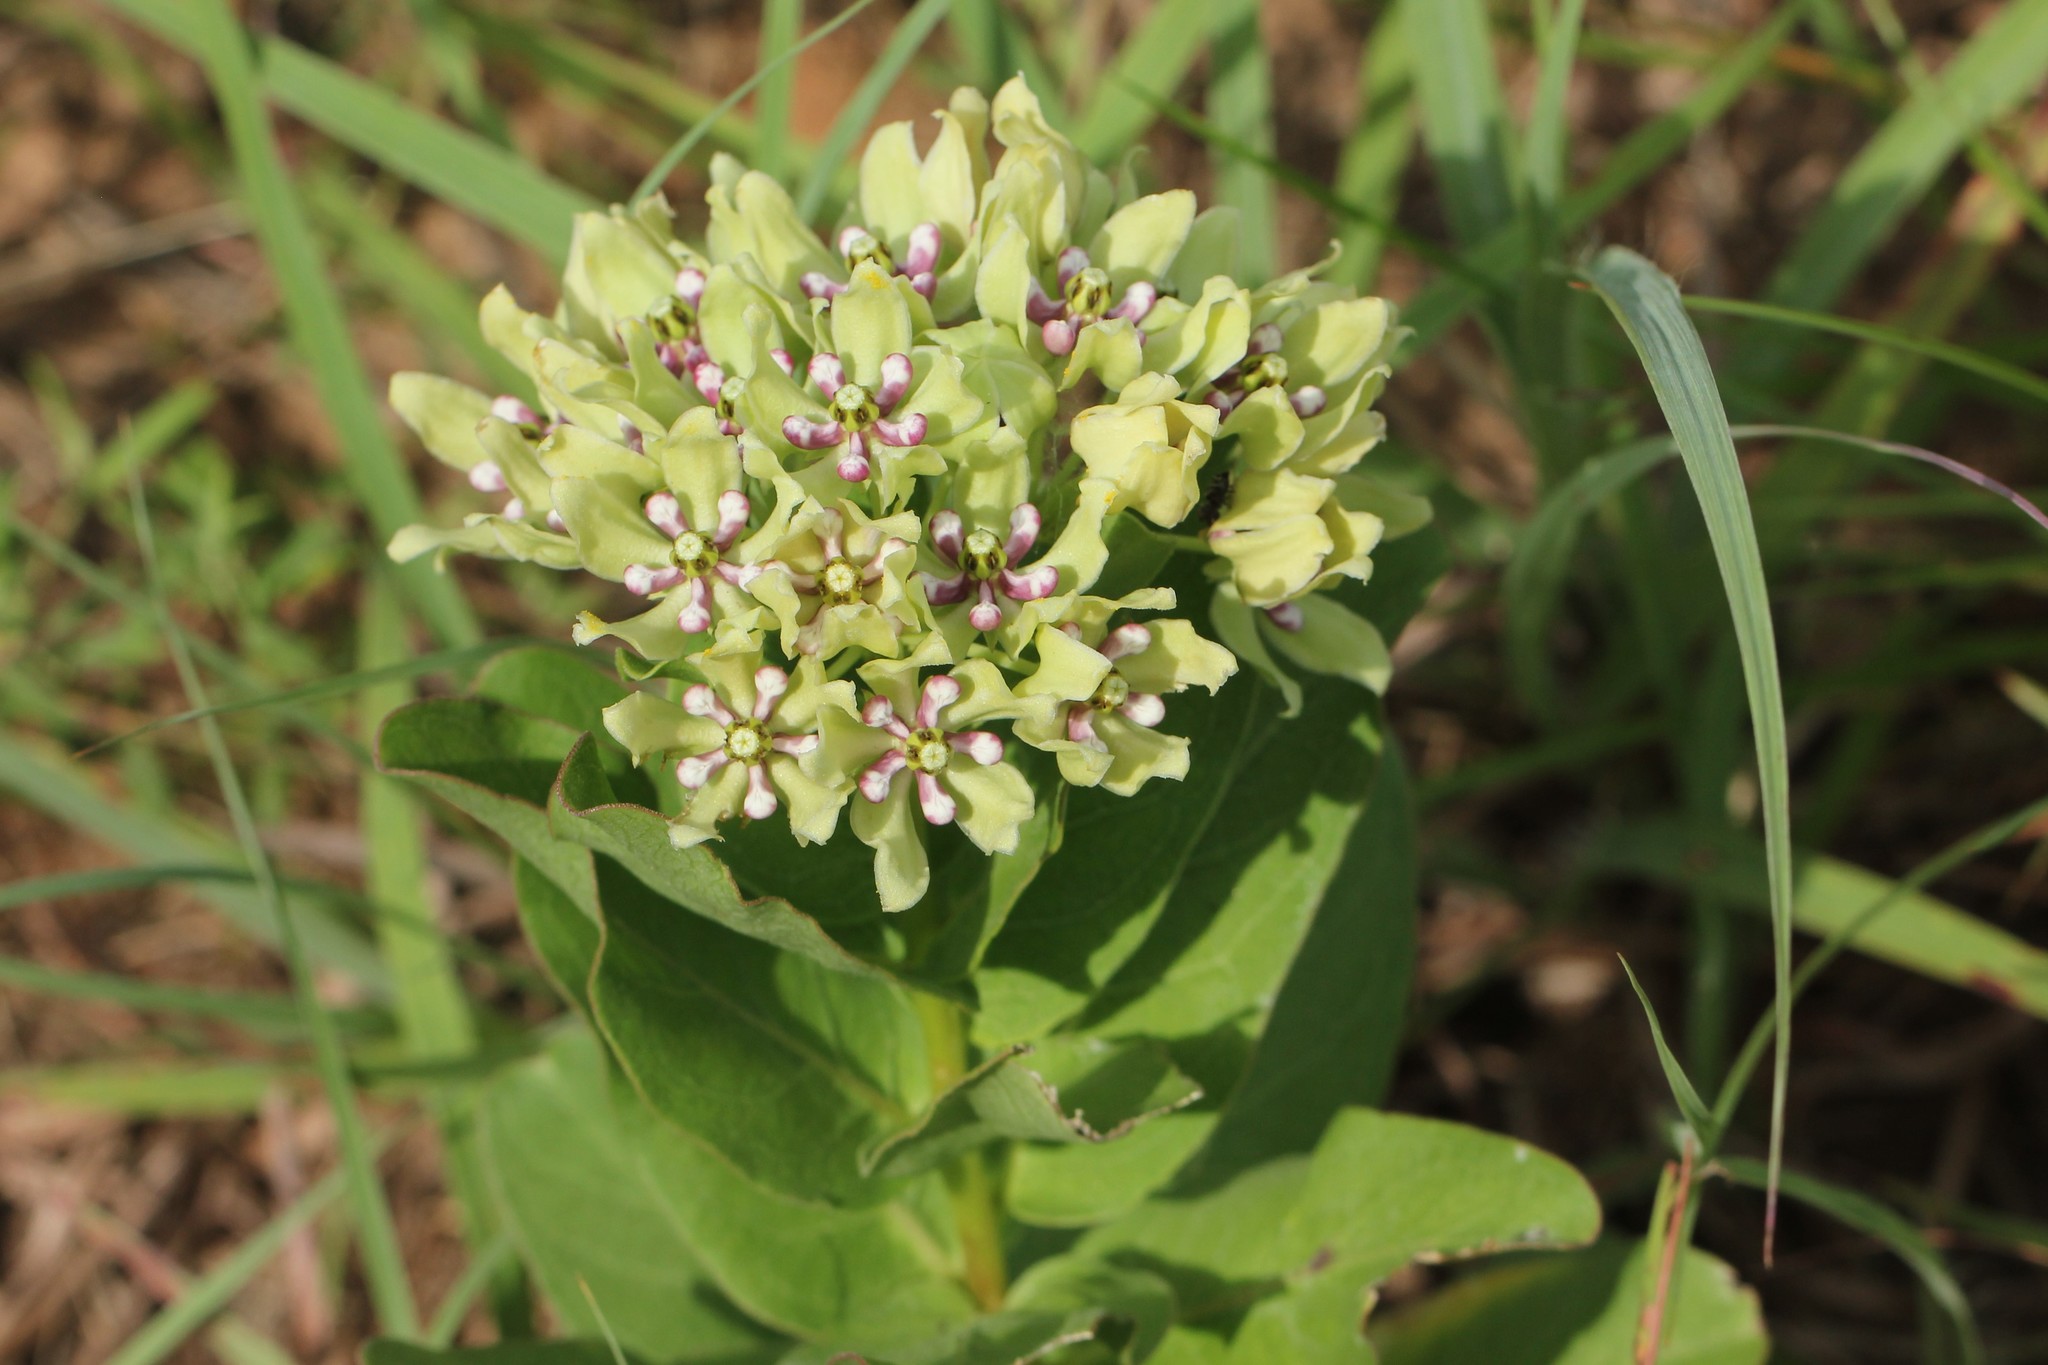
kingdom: Plantae
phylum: Tracheophyta
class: Magnoliopsida
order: Gentianales
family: Apocynaceae
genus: Asclepias
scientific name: Asclepias viridis
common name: Antelope-horns
